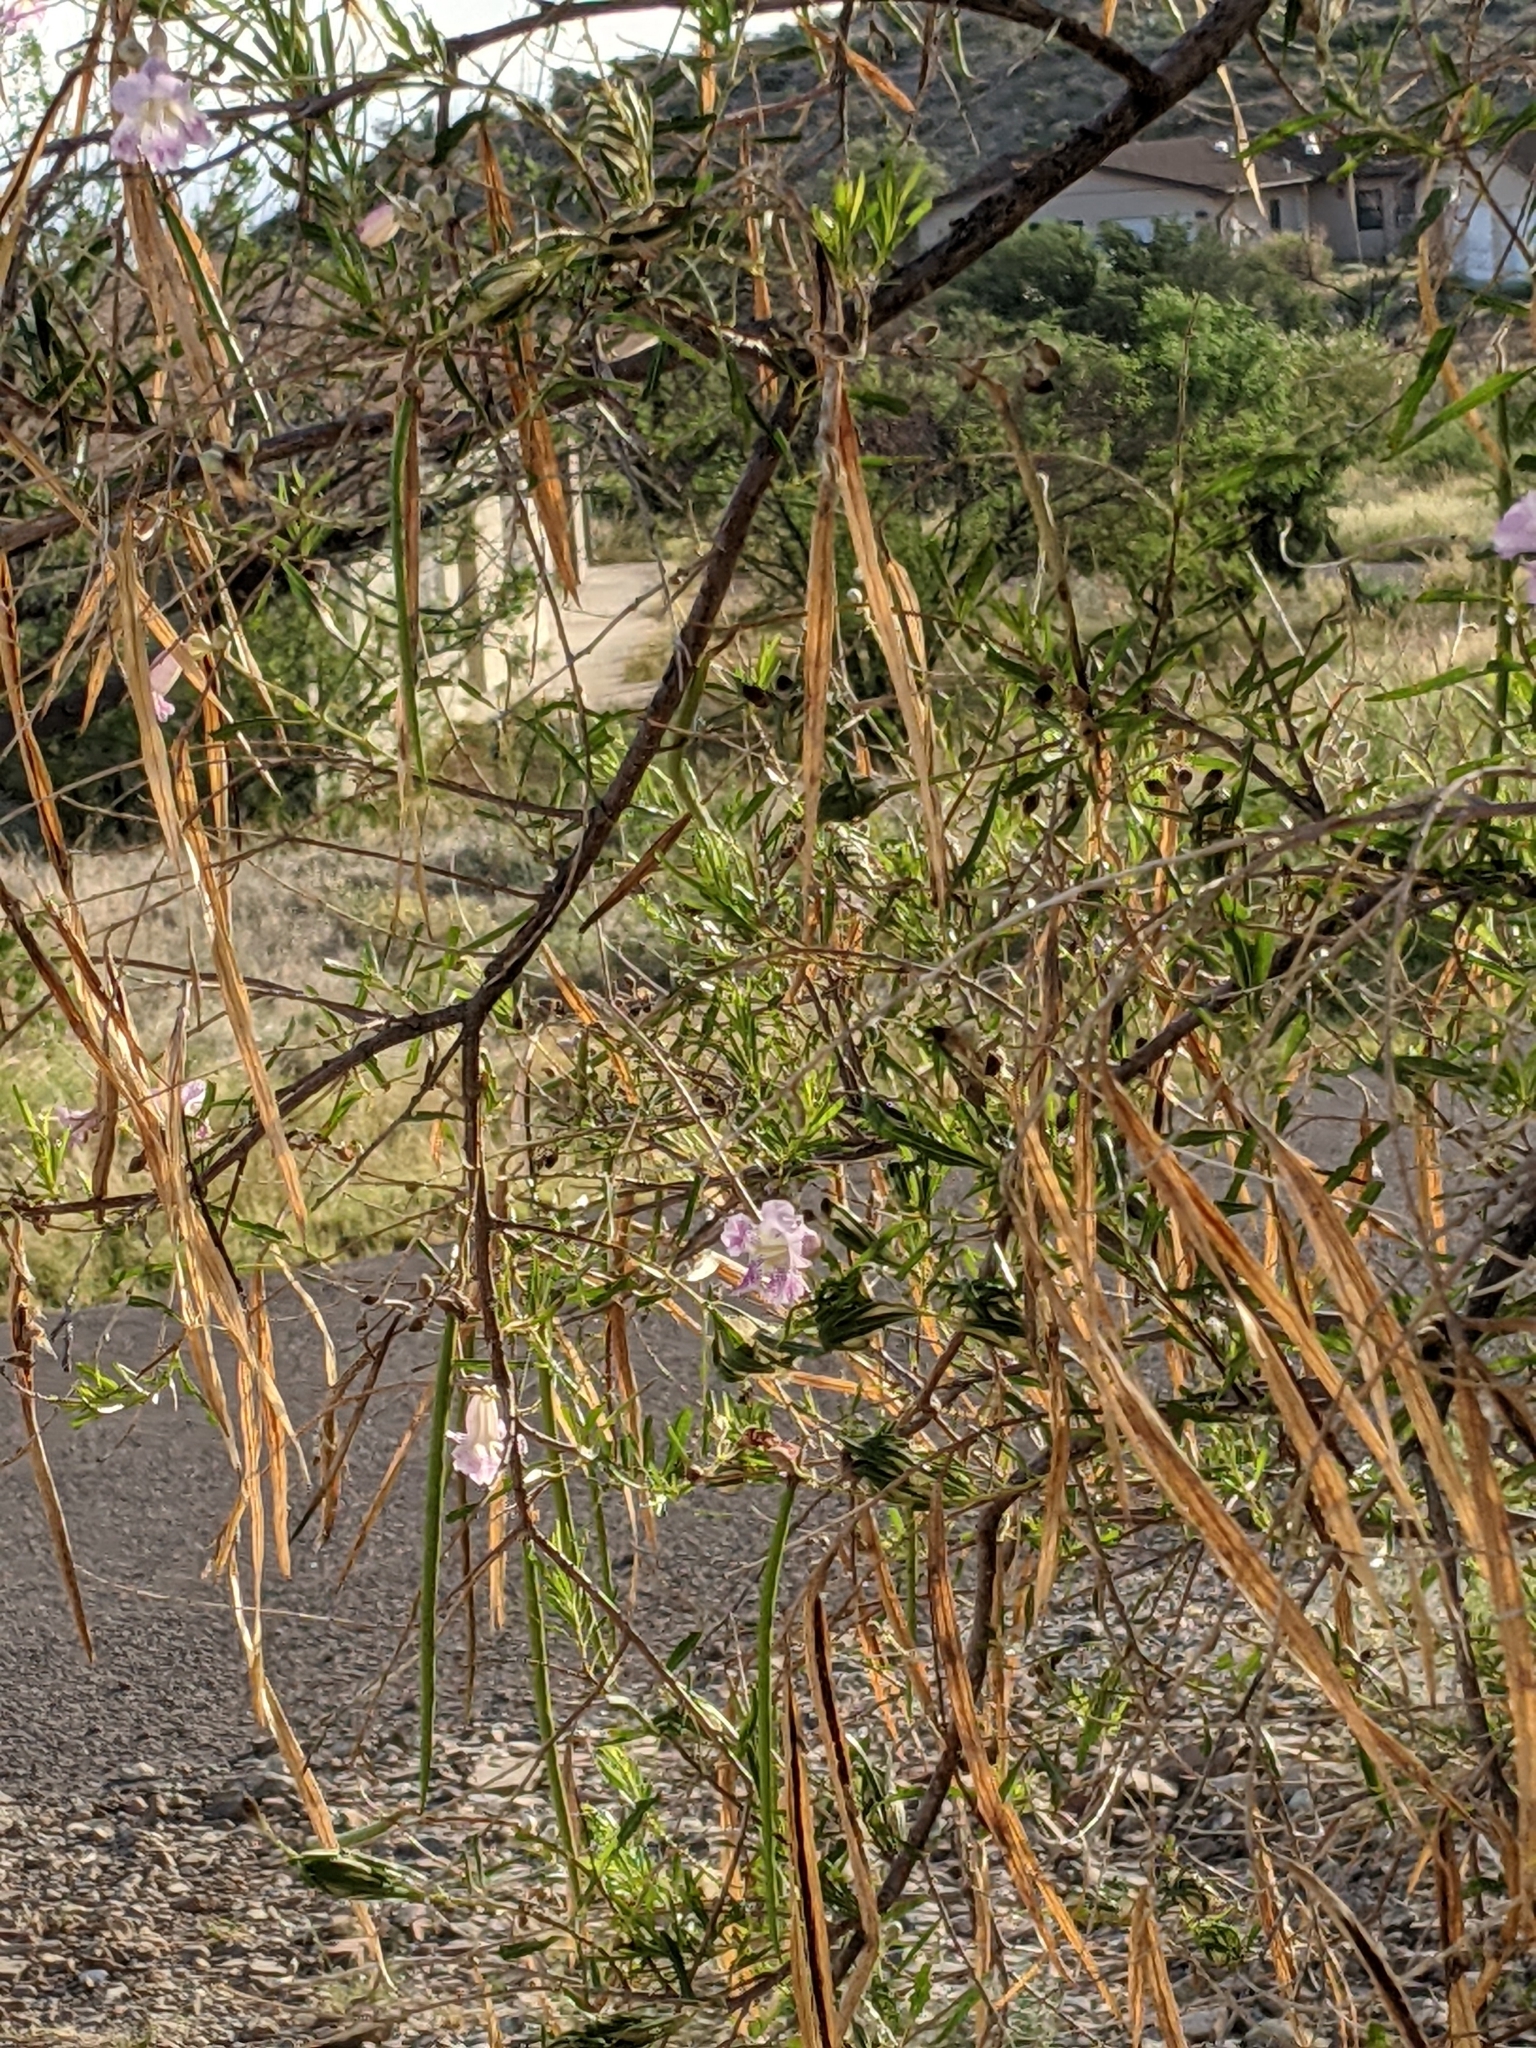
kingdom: Plantae
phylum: Tracheophyta
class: Magnoliopsida
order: Lamiales
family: Bignoniaceae
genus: Chilopsis
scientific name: Chilopsis linearis
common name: Desert-willow
